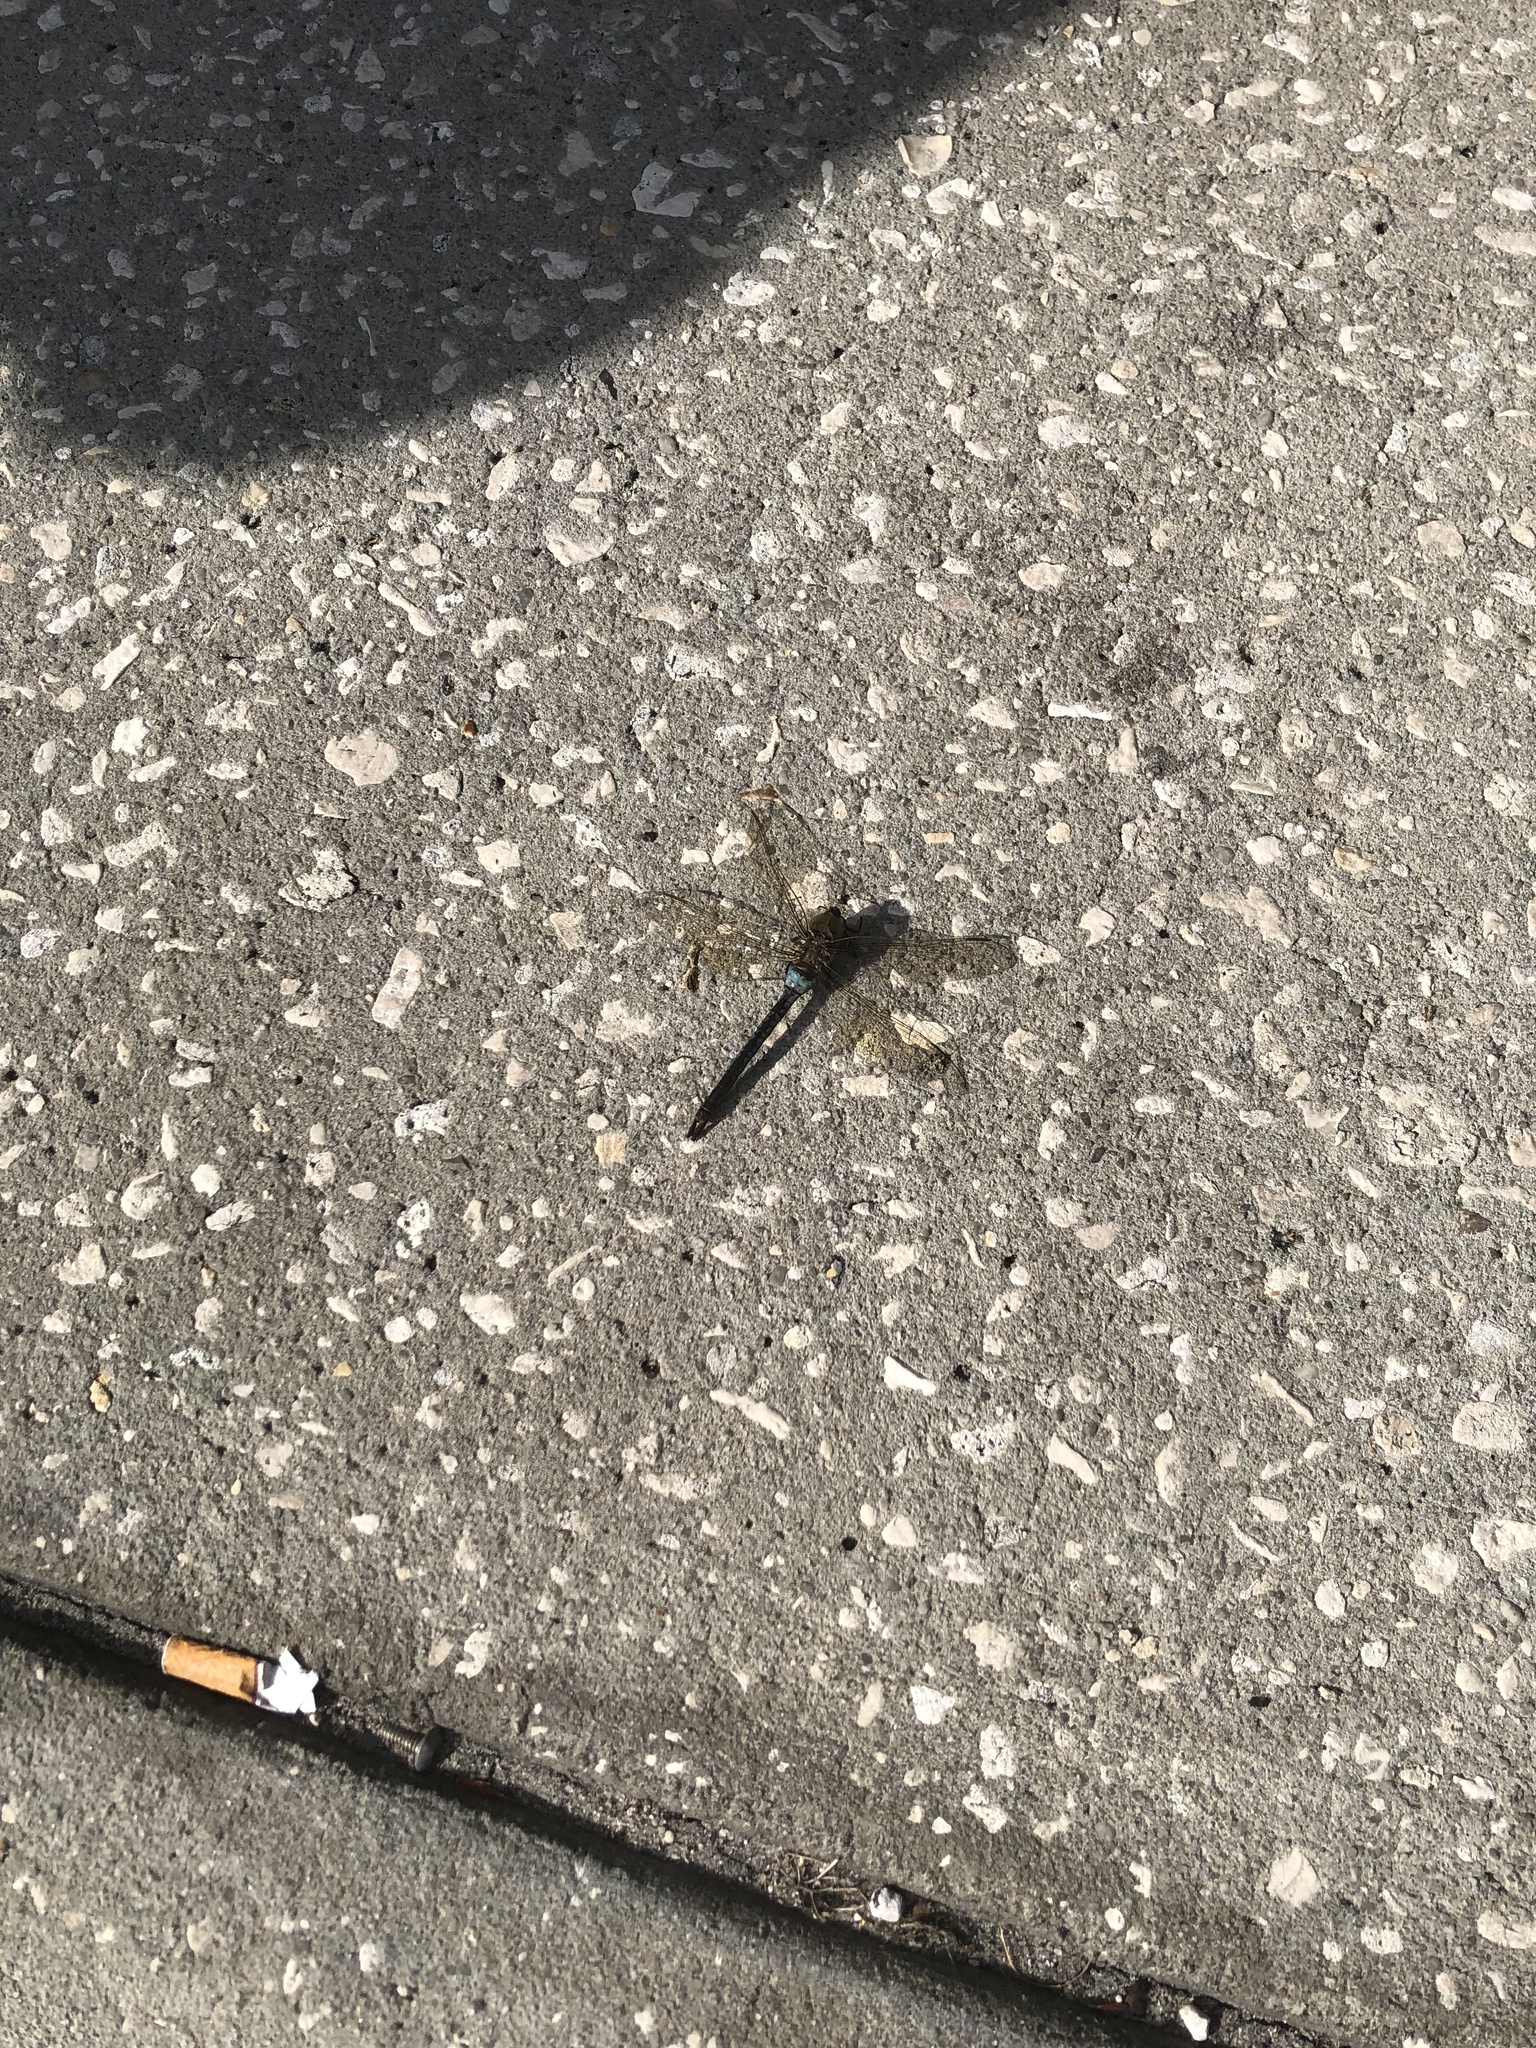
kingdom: Animalia
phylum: Arthropoda
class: Insecta
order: Odonata
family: Aeshnidae
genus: Anax
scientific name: Anax junius
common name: Common green darner
